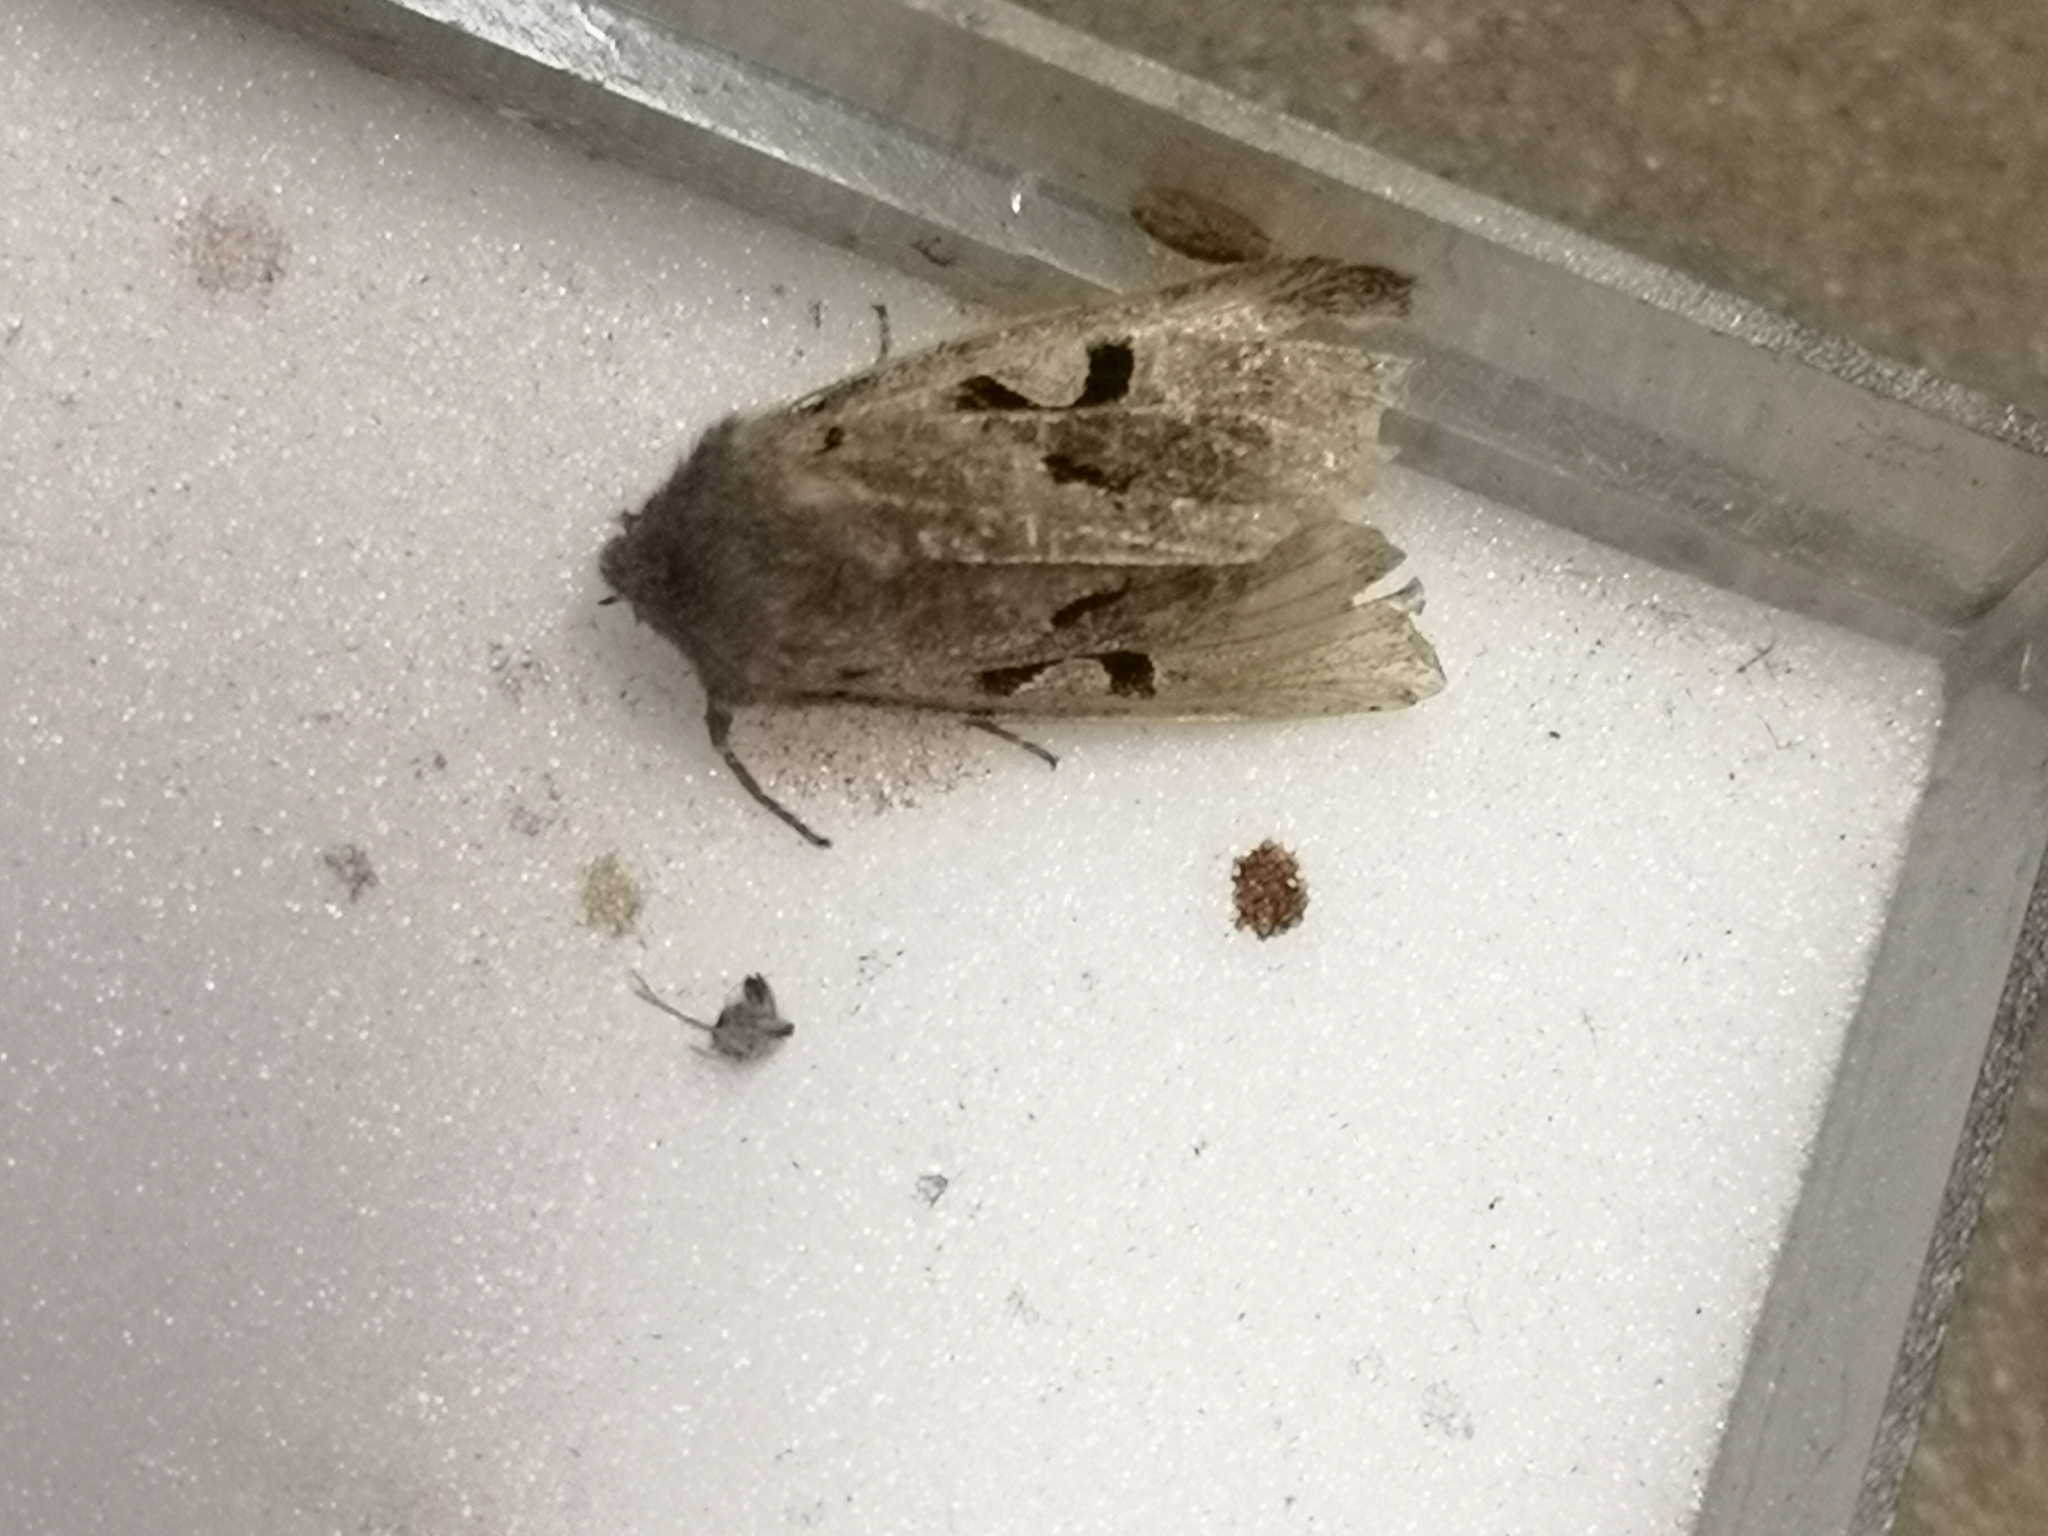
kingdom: Animalia
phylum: Arthropoda
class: Insecta
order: Lepidoptera
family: Noctuidae
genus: Orthosia
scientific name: Orthosia gothica
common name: Hebrew character
